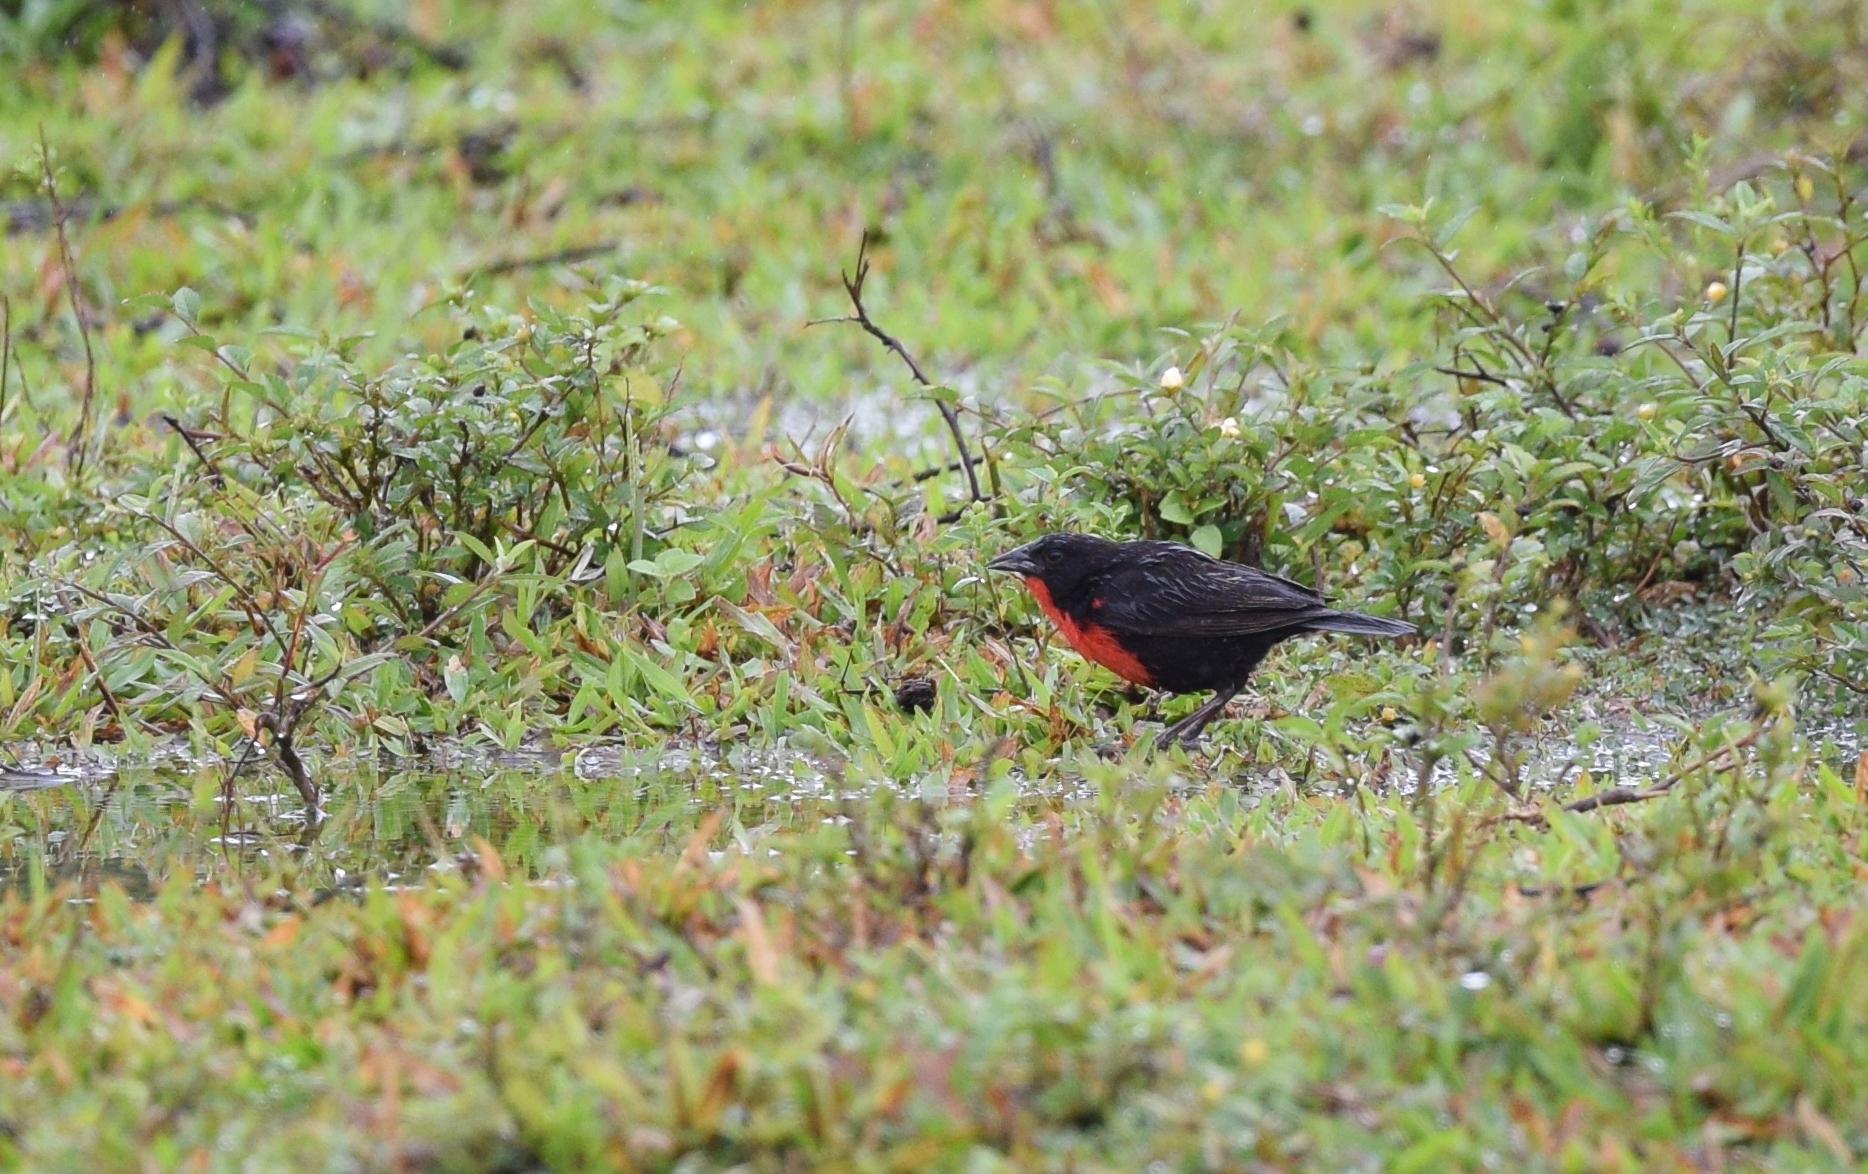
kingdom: Animalia
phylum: Chordata
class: Aves
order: Passeriformes
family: Icteridae
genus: Sturnella
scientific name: Sturnella militaris
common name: Red-breasted blackbird
